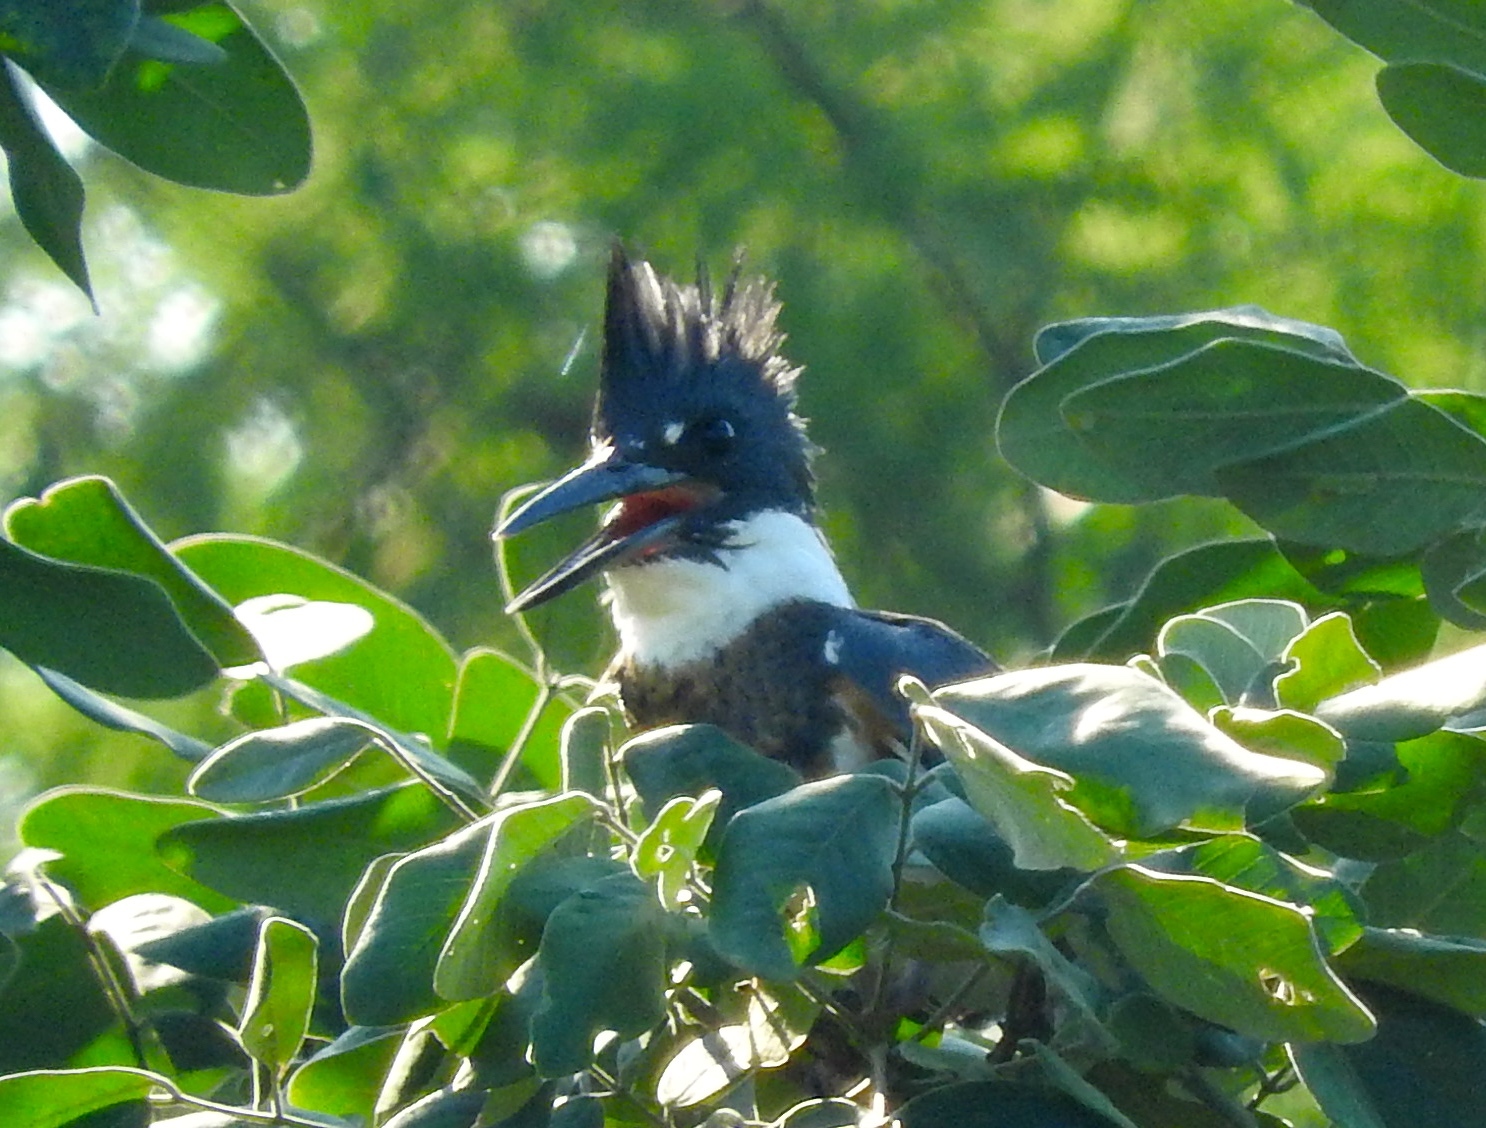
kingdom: Animalia
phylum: Chordata
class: Aves
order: Coraciiformes
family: Alcedinidae
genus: Megaceryle
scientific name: Megaceryle alcyon
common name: Belted kingfisher
